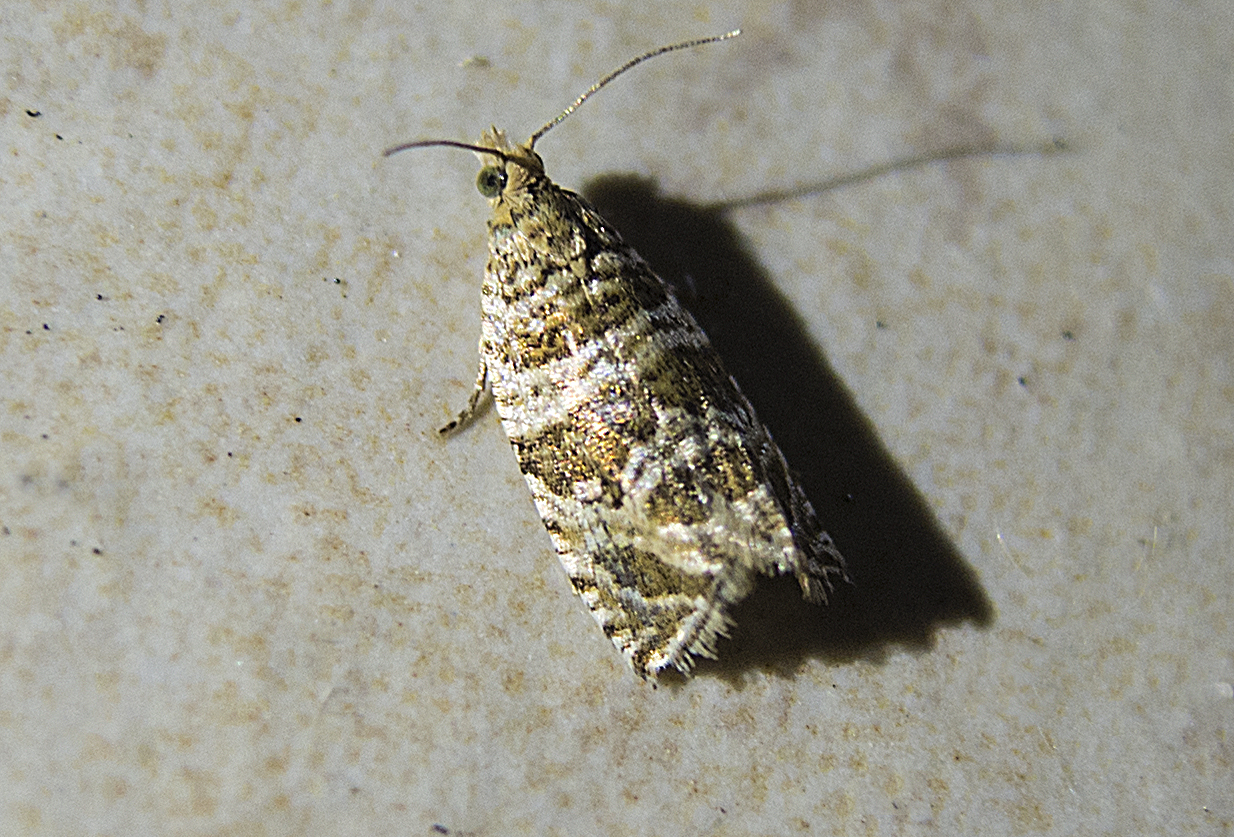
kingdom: Animalia
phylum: Arthropoda
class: Insecta
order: Lepidoptera
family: Tortricidae
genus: Syricoris
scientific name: Syricoris rivulana
